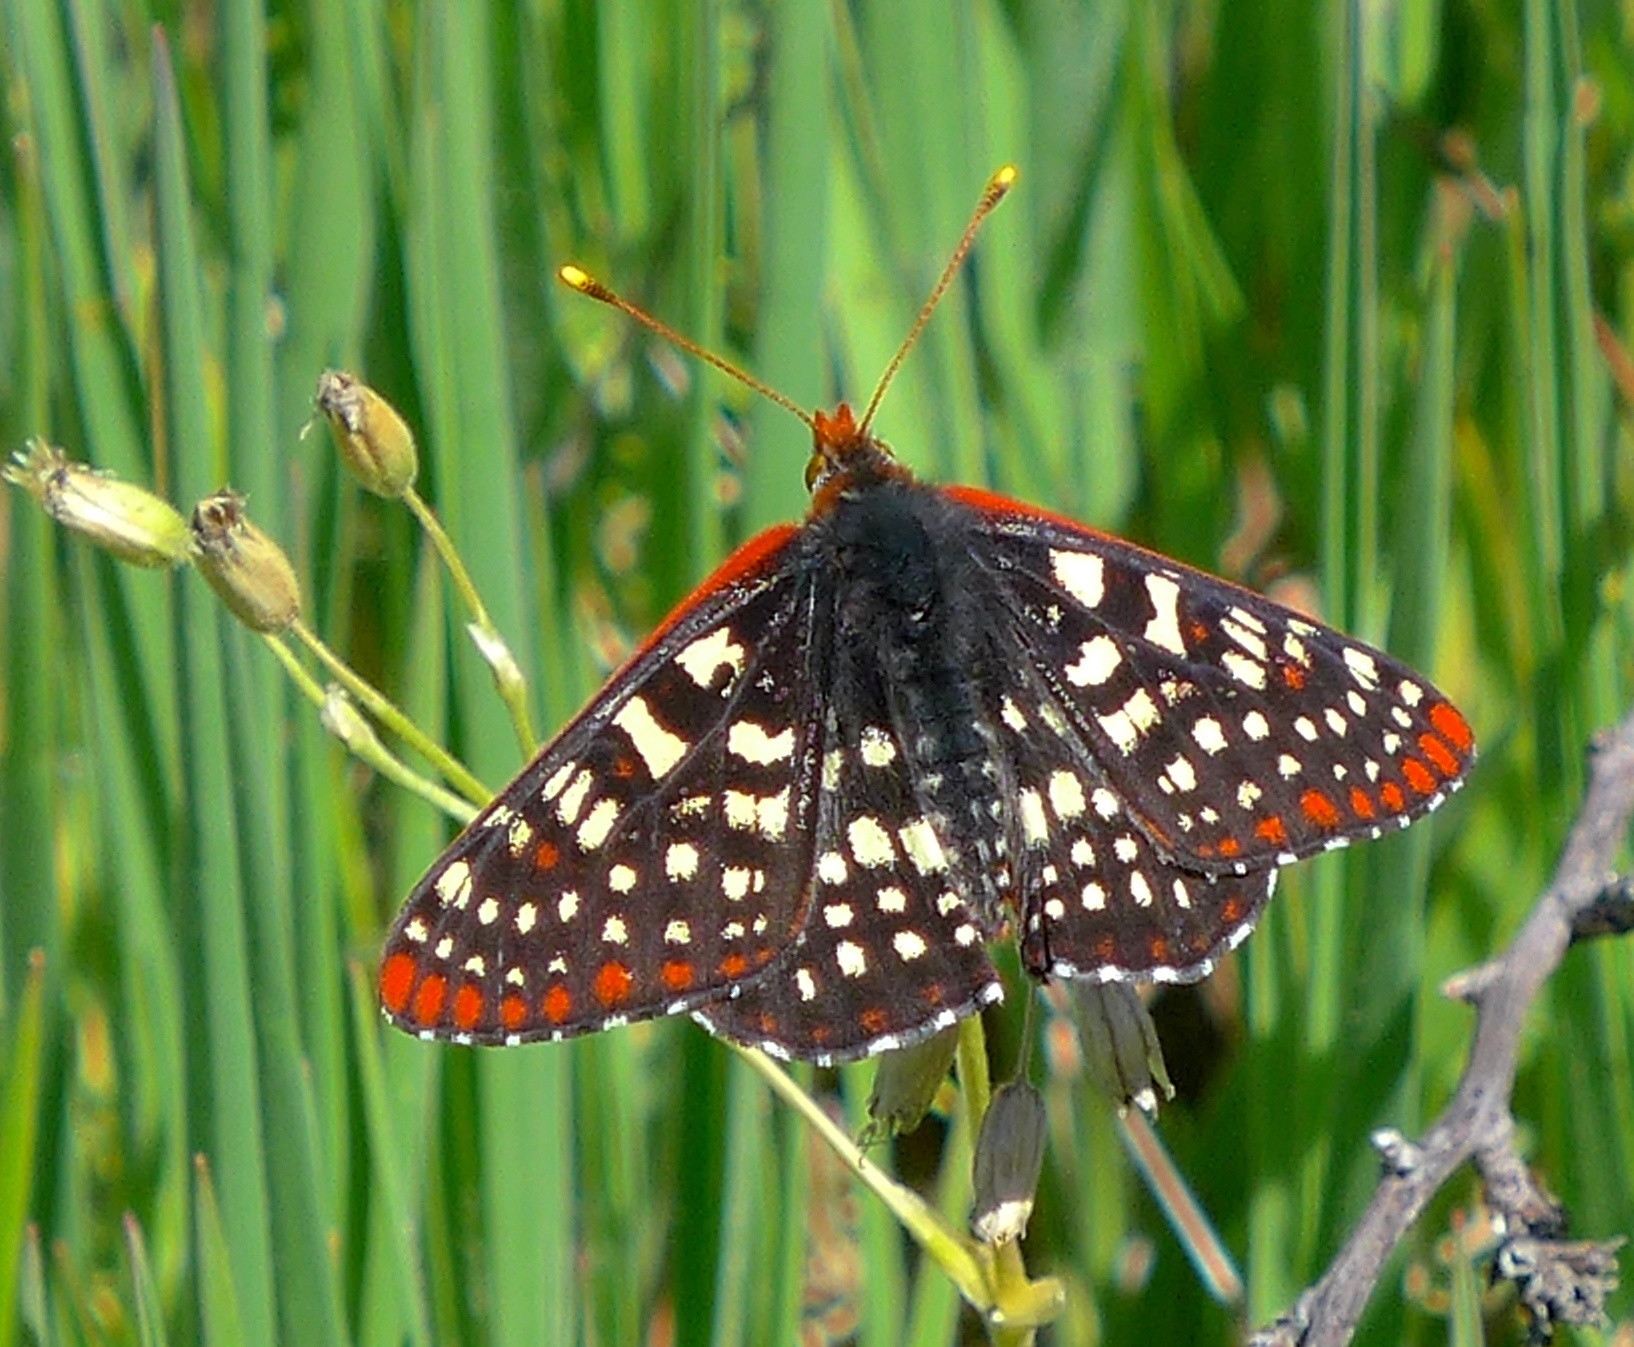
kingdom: Animalia
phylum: Arthropoda
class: Insecta
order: Lepidoptera
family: Nymphalidae
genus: Occidryas
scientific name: Occidryas chalcedona
